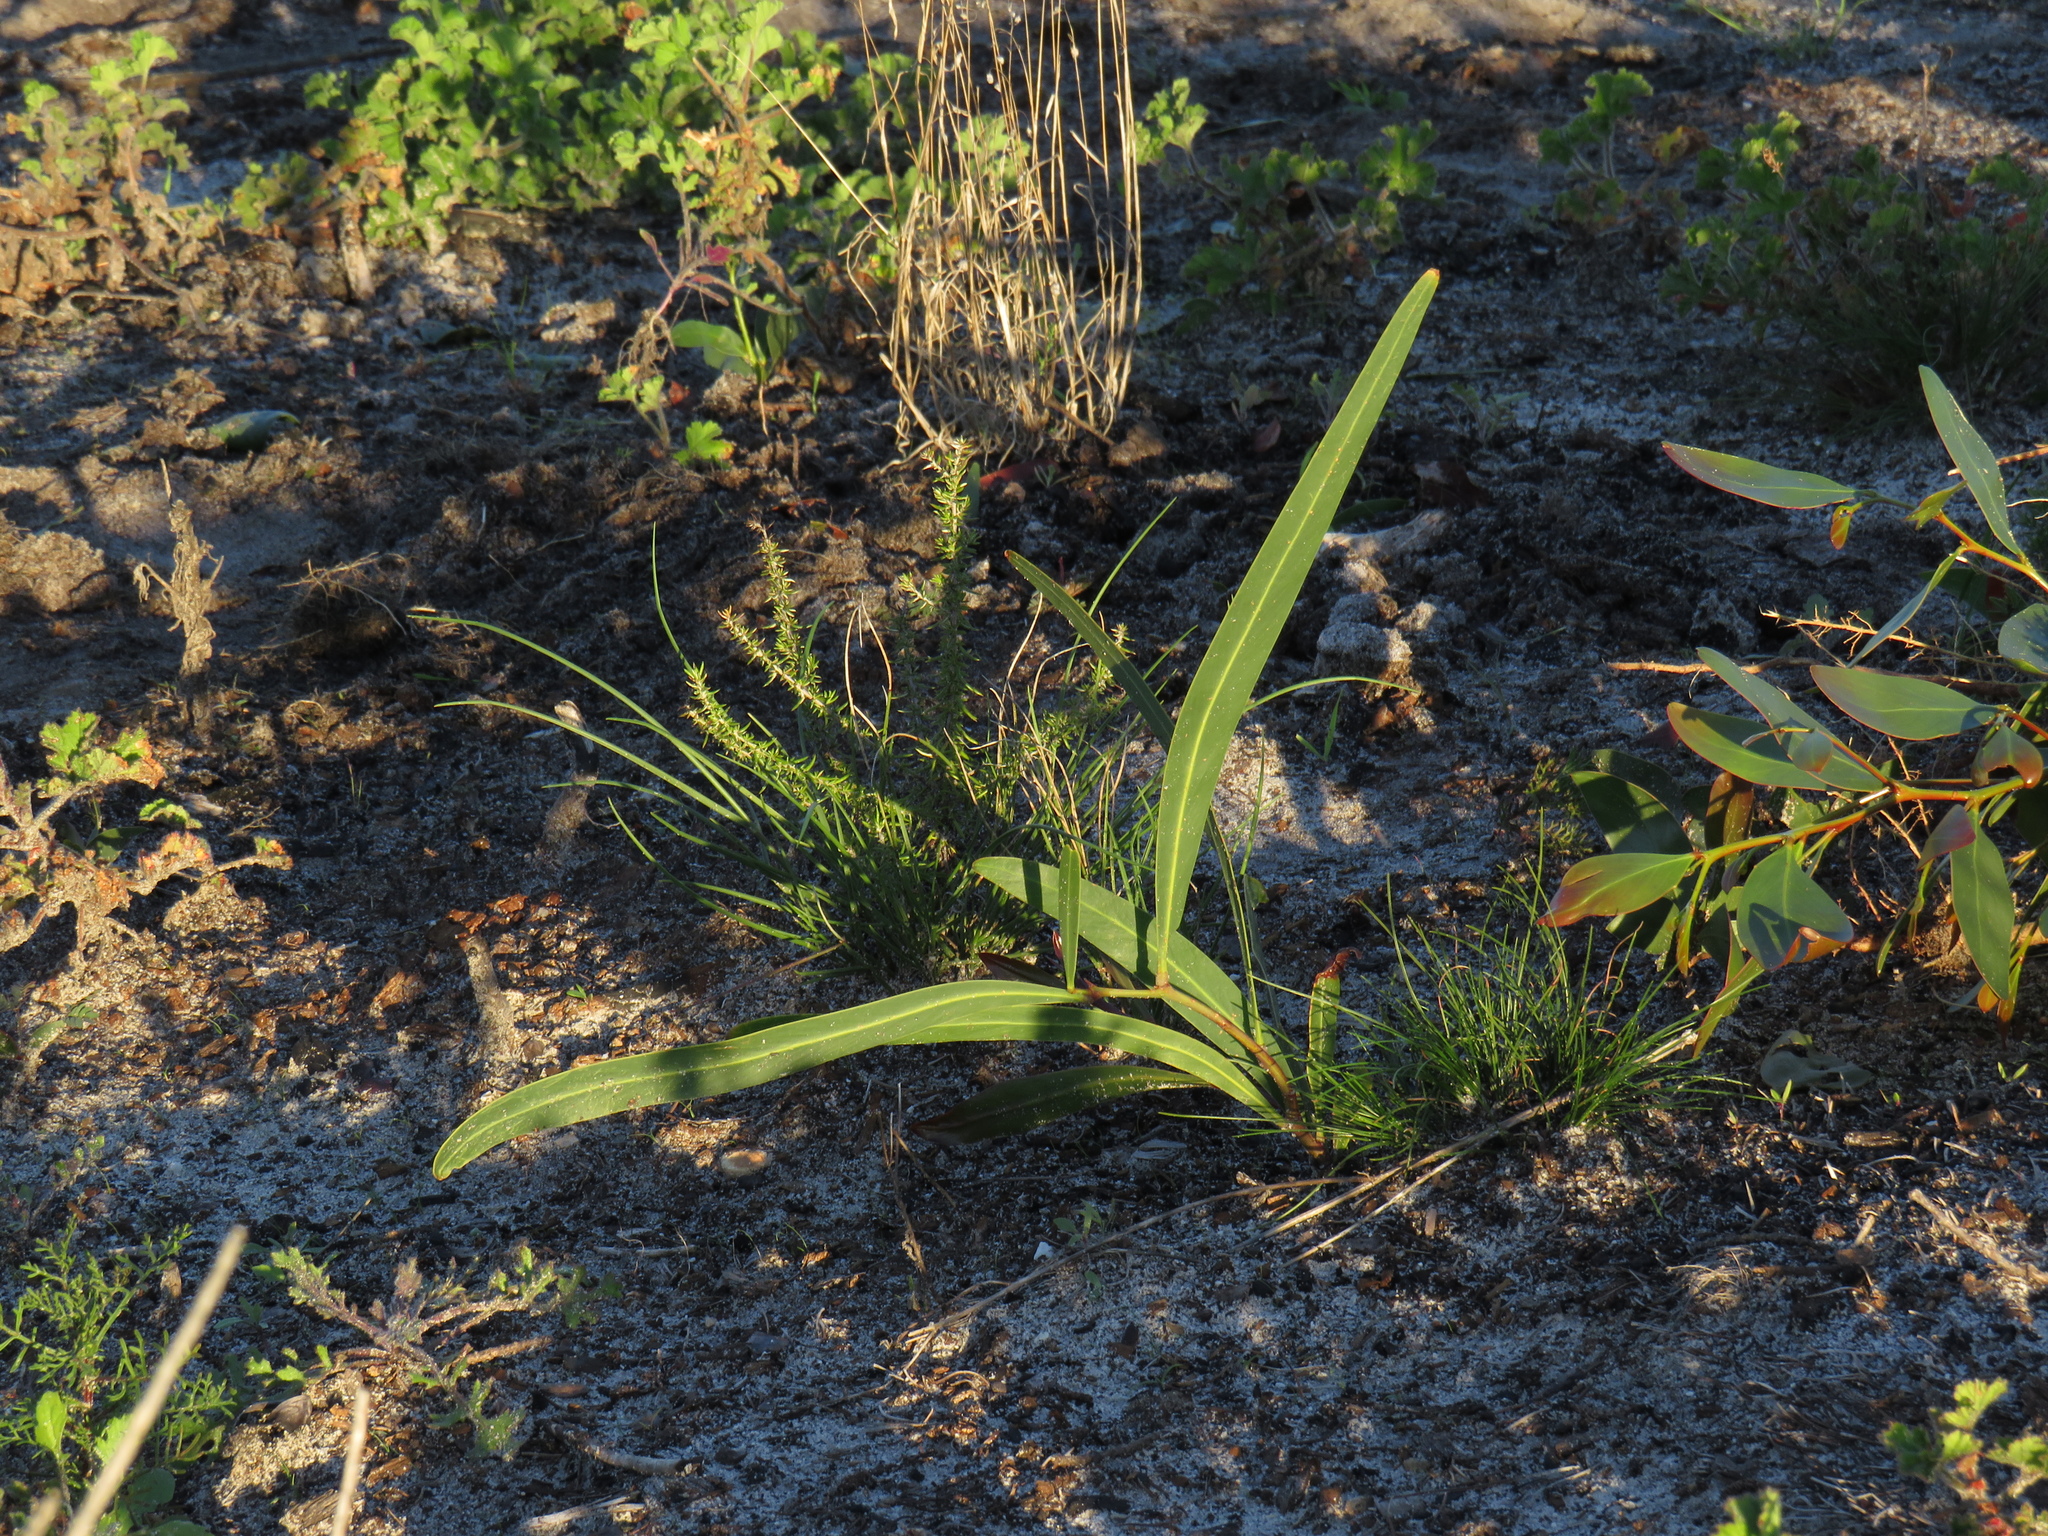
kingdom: Plantae
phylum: Tracheophyta
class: Magnoliopsida
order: Fabales
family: Fabaceae
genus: Acacia
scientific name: Acacia saligna
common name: Orange wattle
